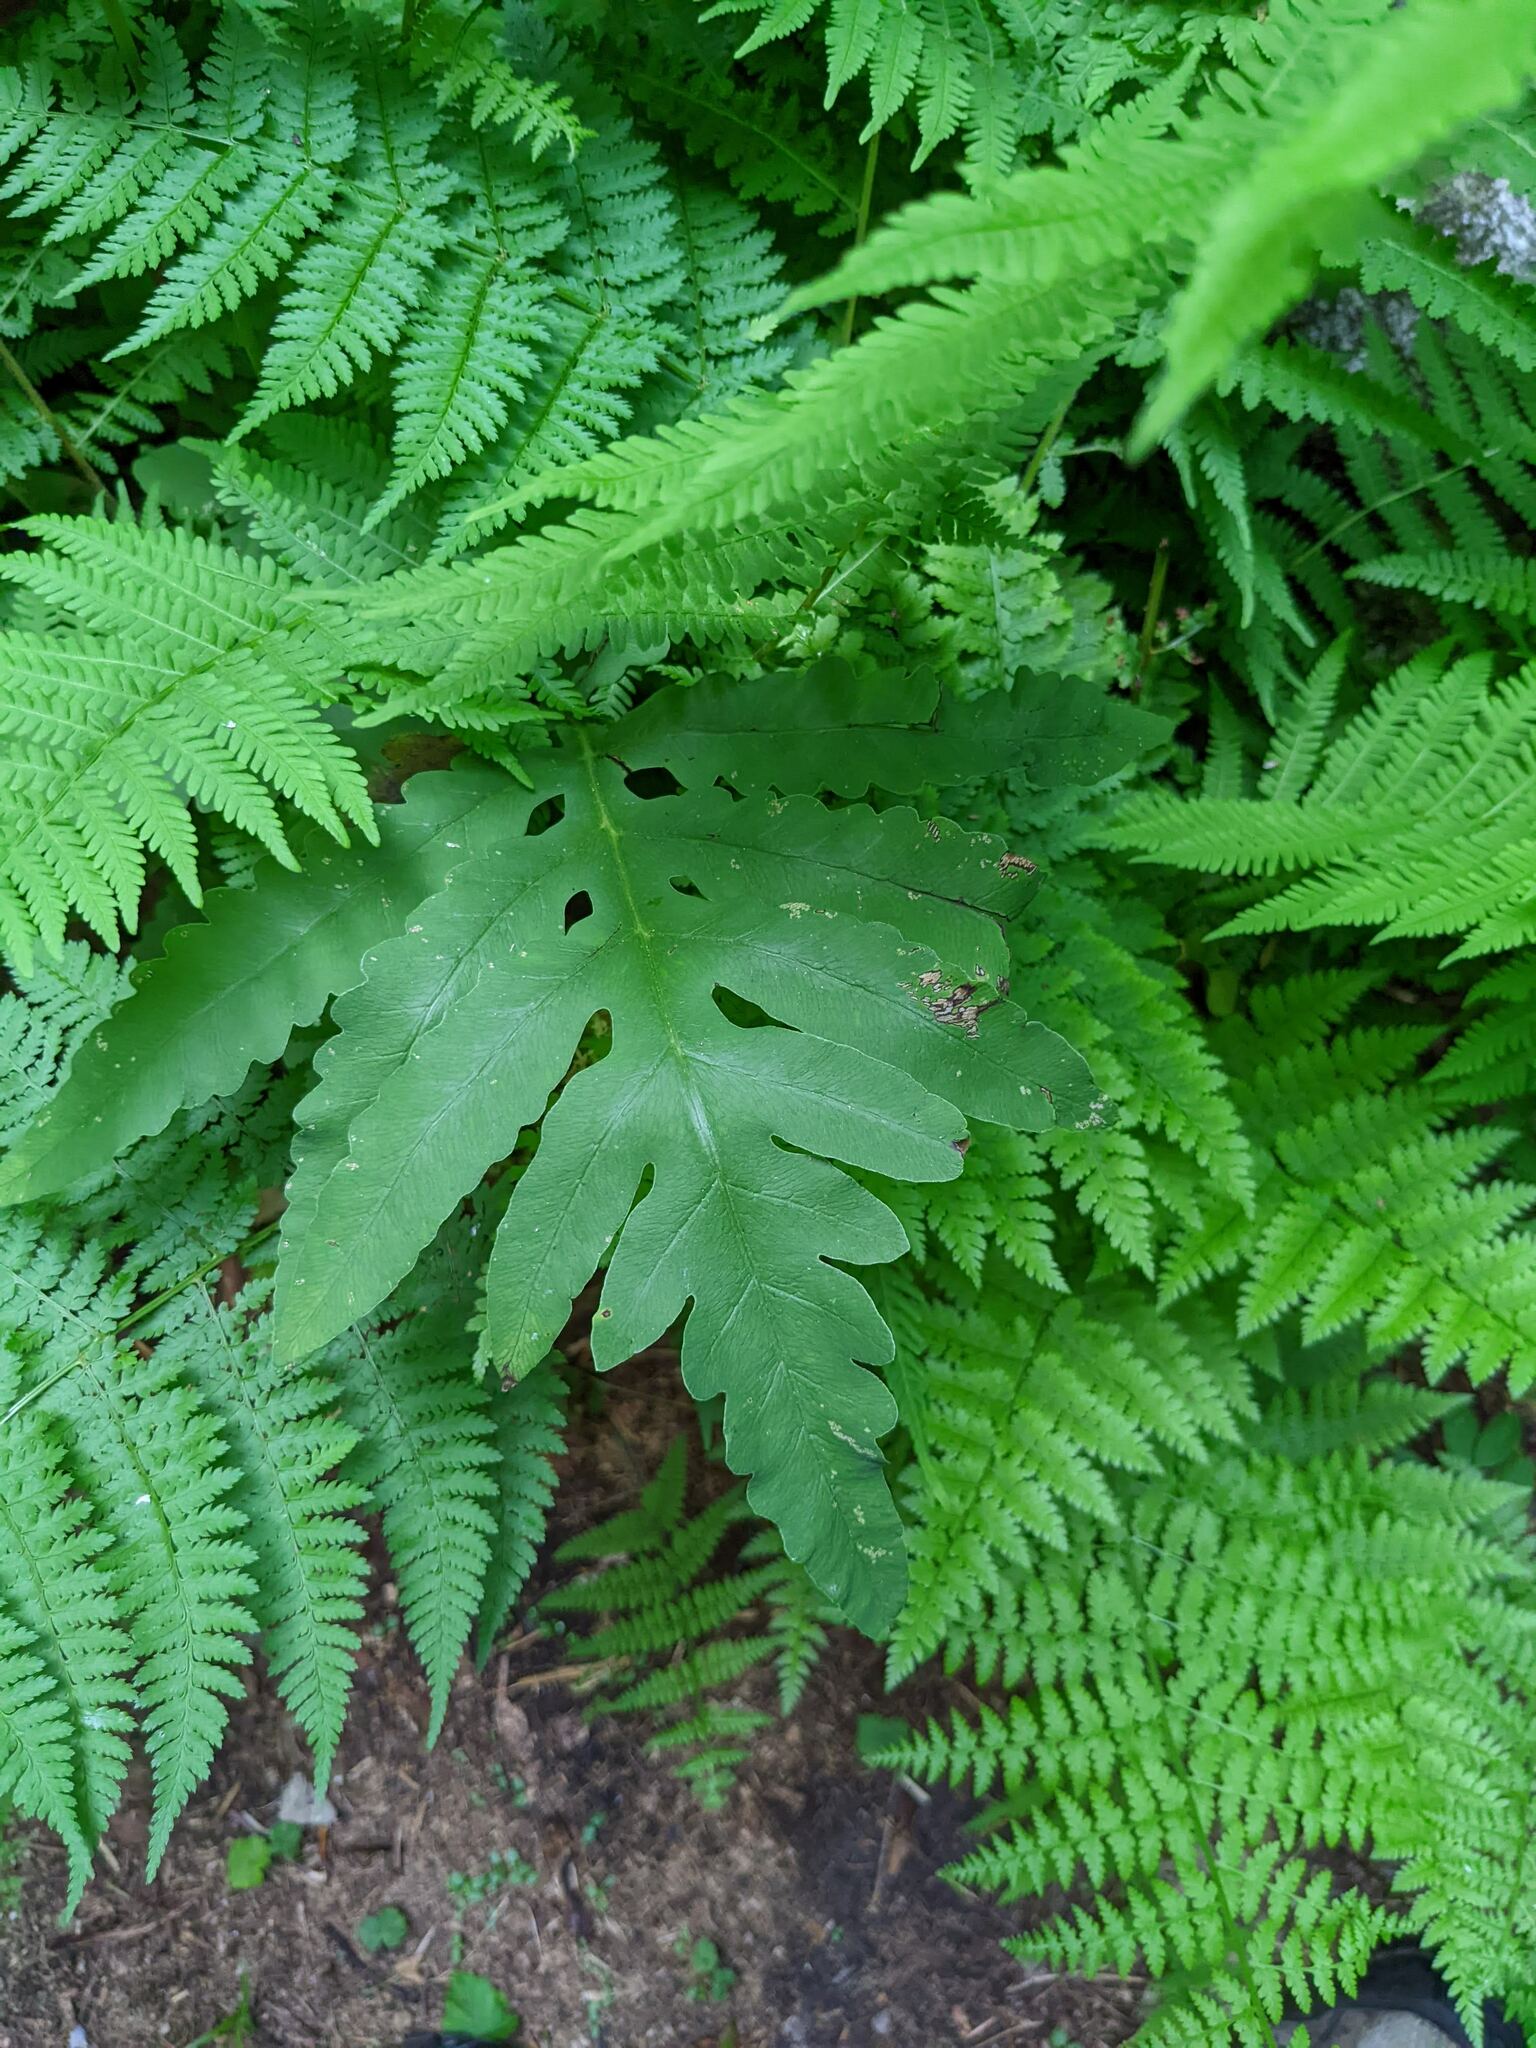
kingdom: Plantae
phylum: Tracheophyta
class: Polypodiopsida
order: Polypodiales
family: Onocleaceae
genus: Onoclea
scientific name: Onoclea sensibilis
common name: Sensitive fern
